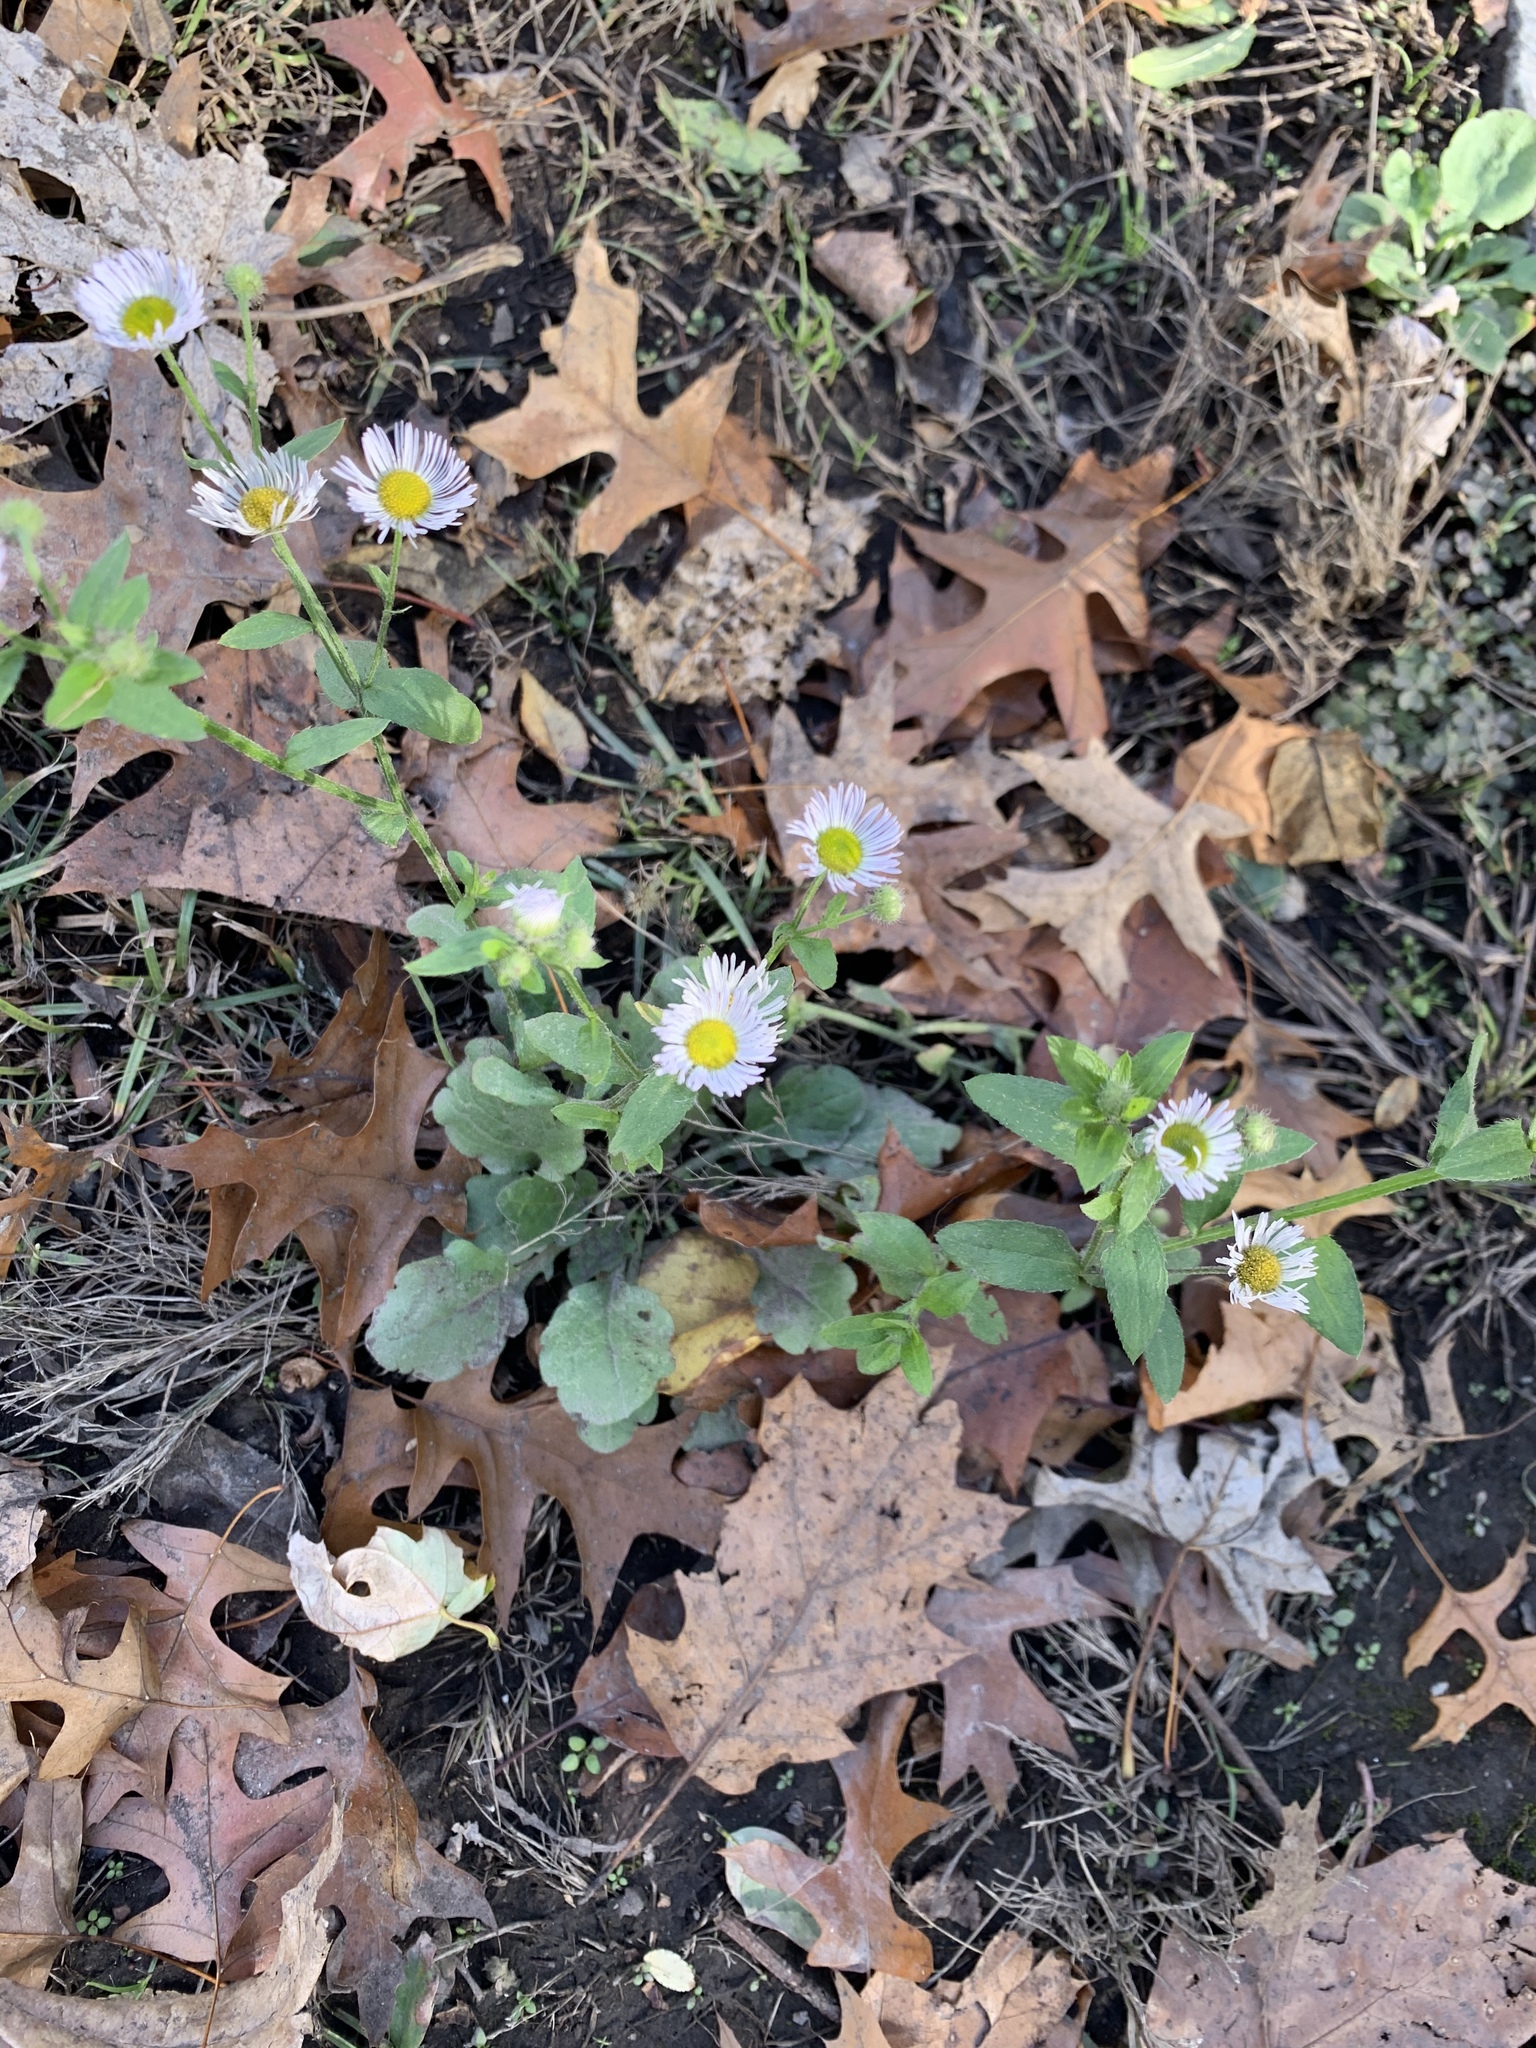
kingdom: Plantae
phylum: Tracheophyta
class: Magnoliopsida
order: Asterales
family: Asteraceae
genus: Erigeron
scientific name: Erigeron annuus
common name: Tall fleabane
